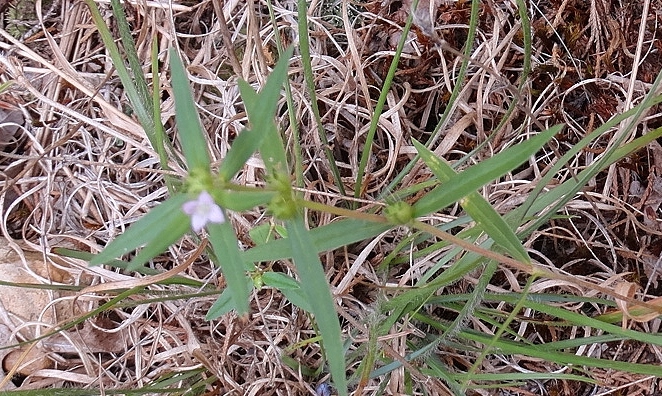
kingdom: Plantae
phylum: Tracheophyta
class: Magnoliopsida
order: Gentianales
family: Rubiaceae
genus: Hexasepalum
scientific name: Hexasepalum teres
